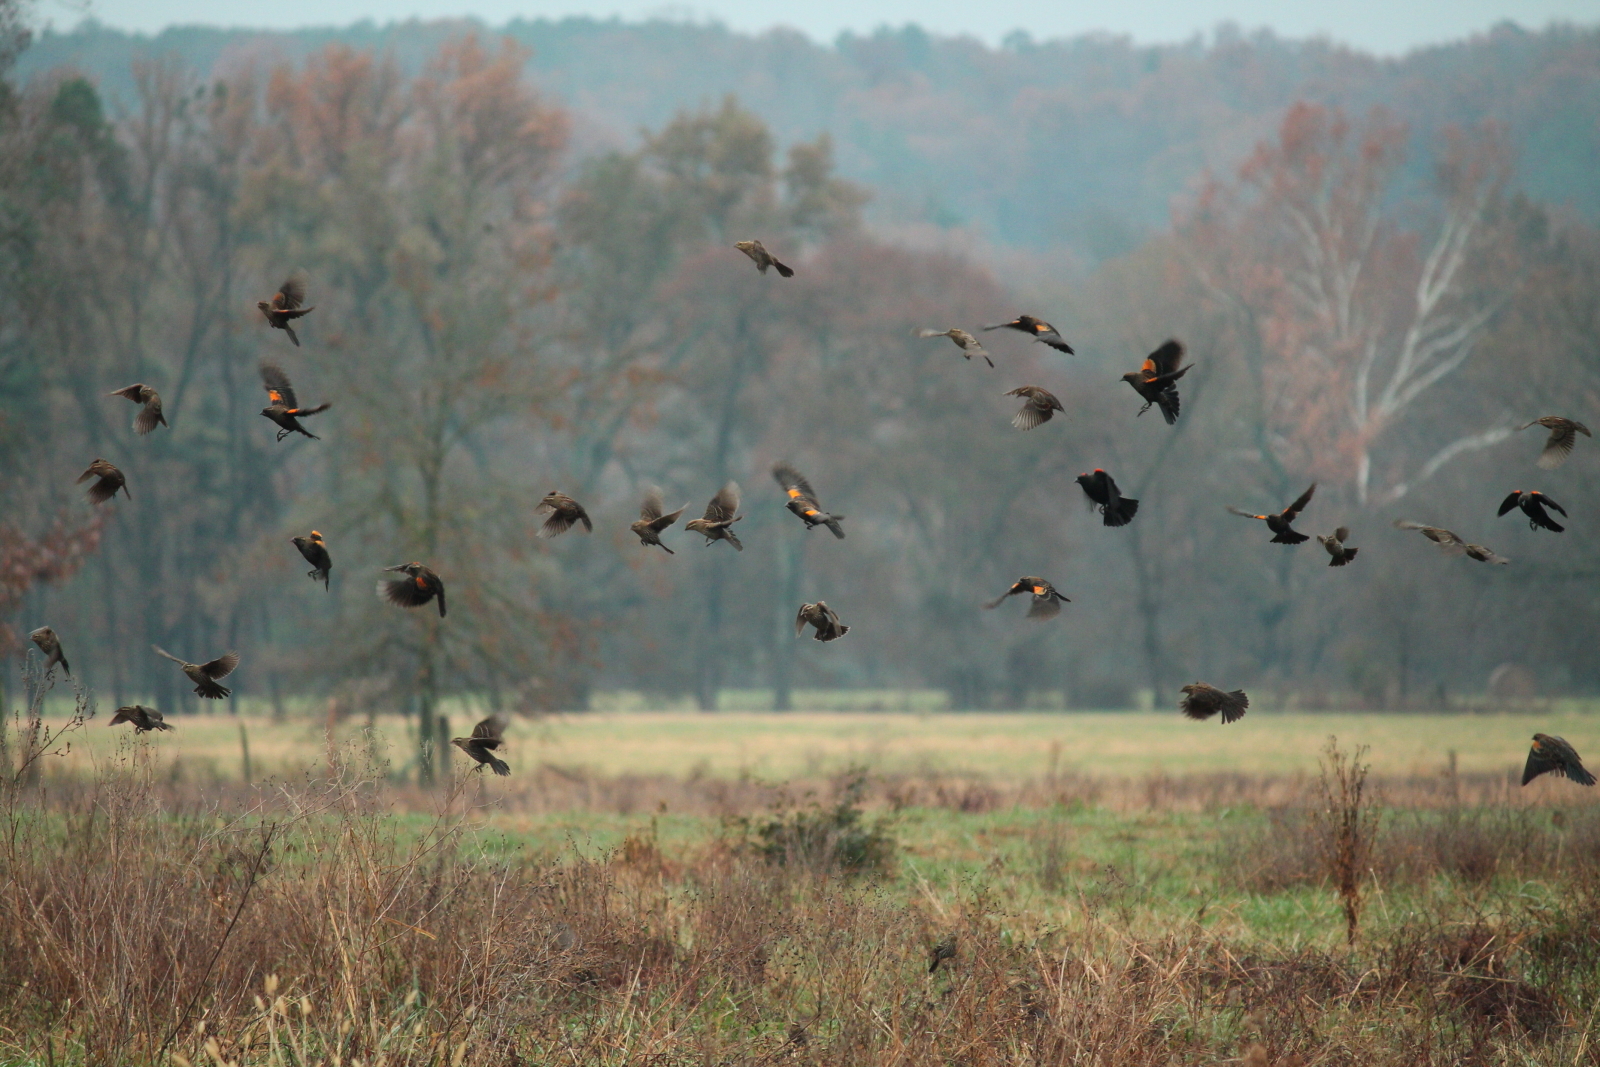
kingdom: Animalia
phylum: Chordata
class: Aves
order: Passeriformes
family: Icteridae
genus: Agelaius
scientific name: Agelaius phoeniceus
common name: Red-winged blackbird
